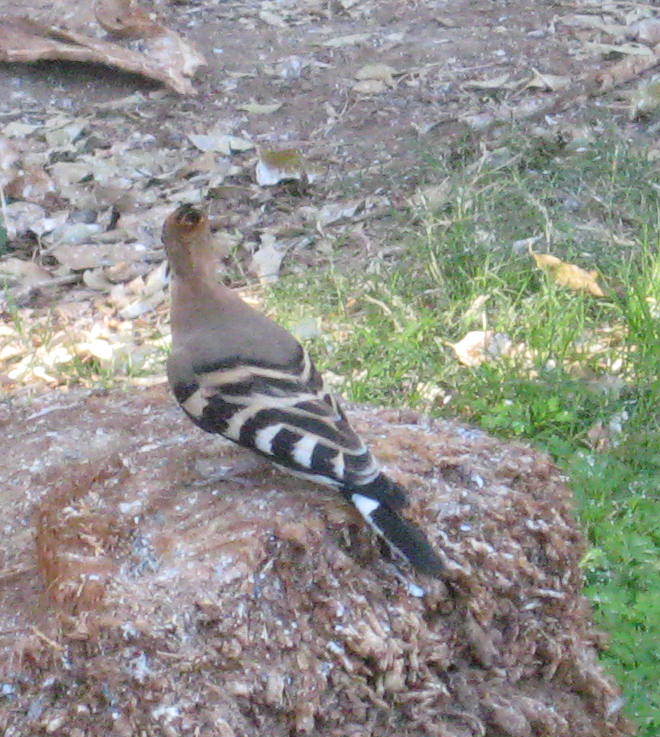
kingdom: Animalia
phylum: Chordata
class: Aves
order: Bucerotiformes
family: Upupidae
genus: Upupa
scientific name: Upupa epops
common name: Eurasian hoopoe
